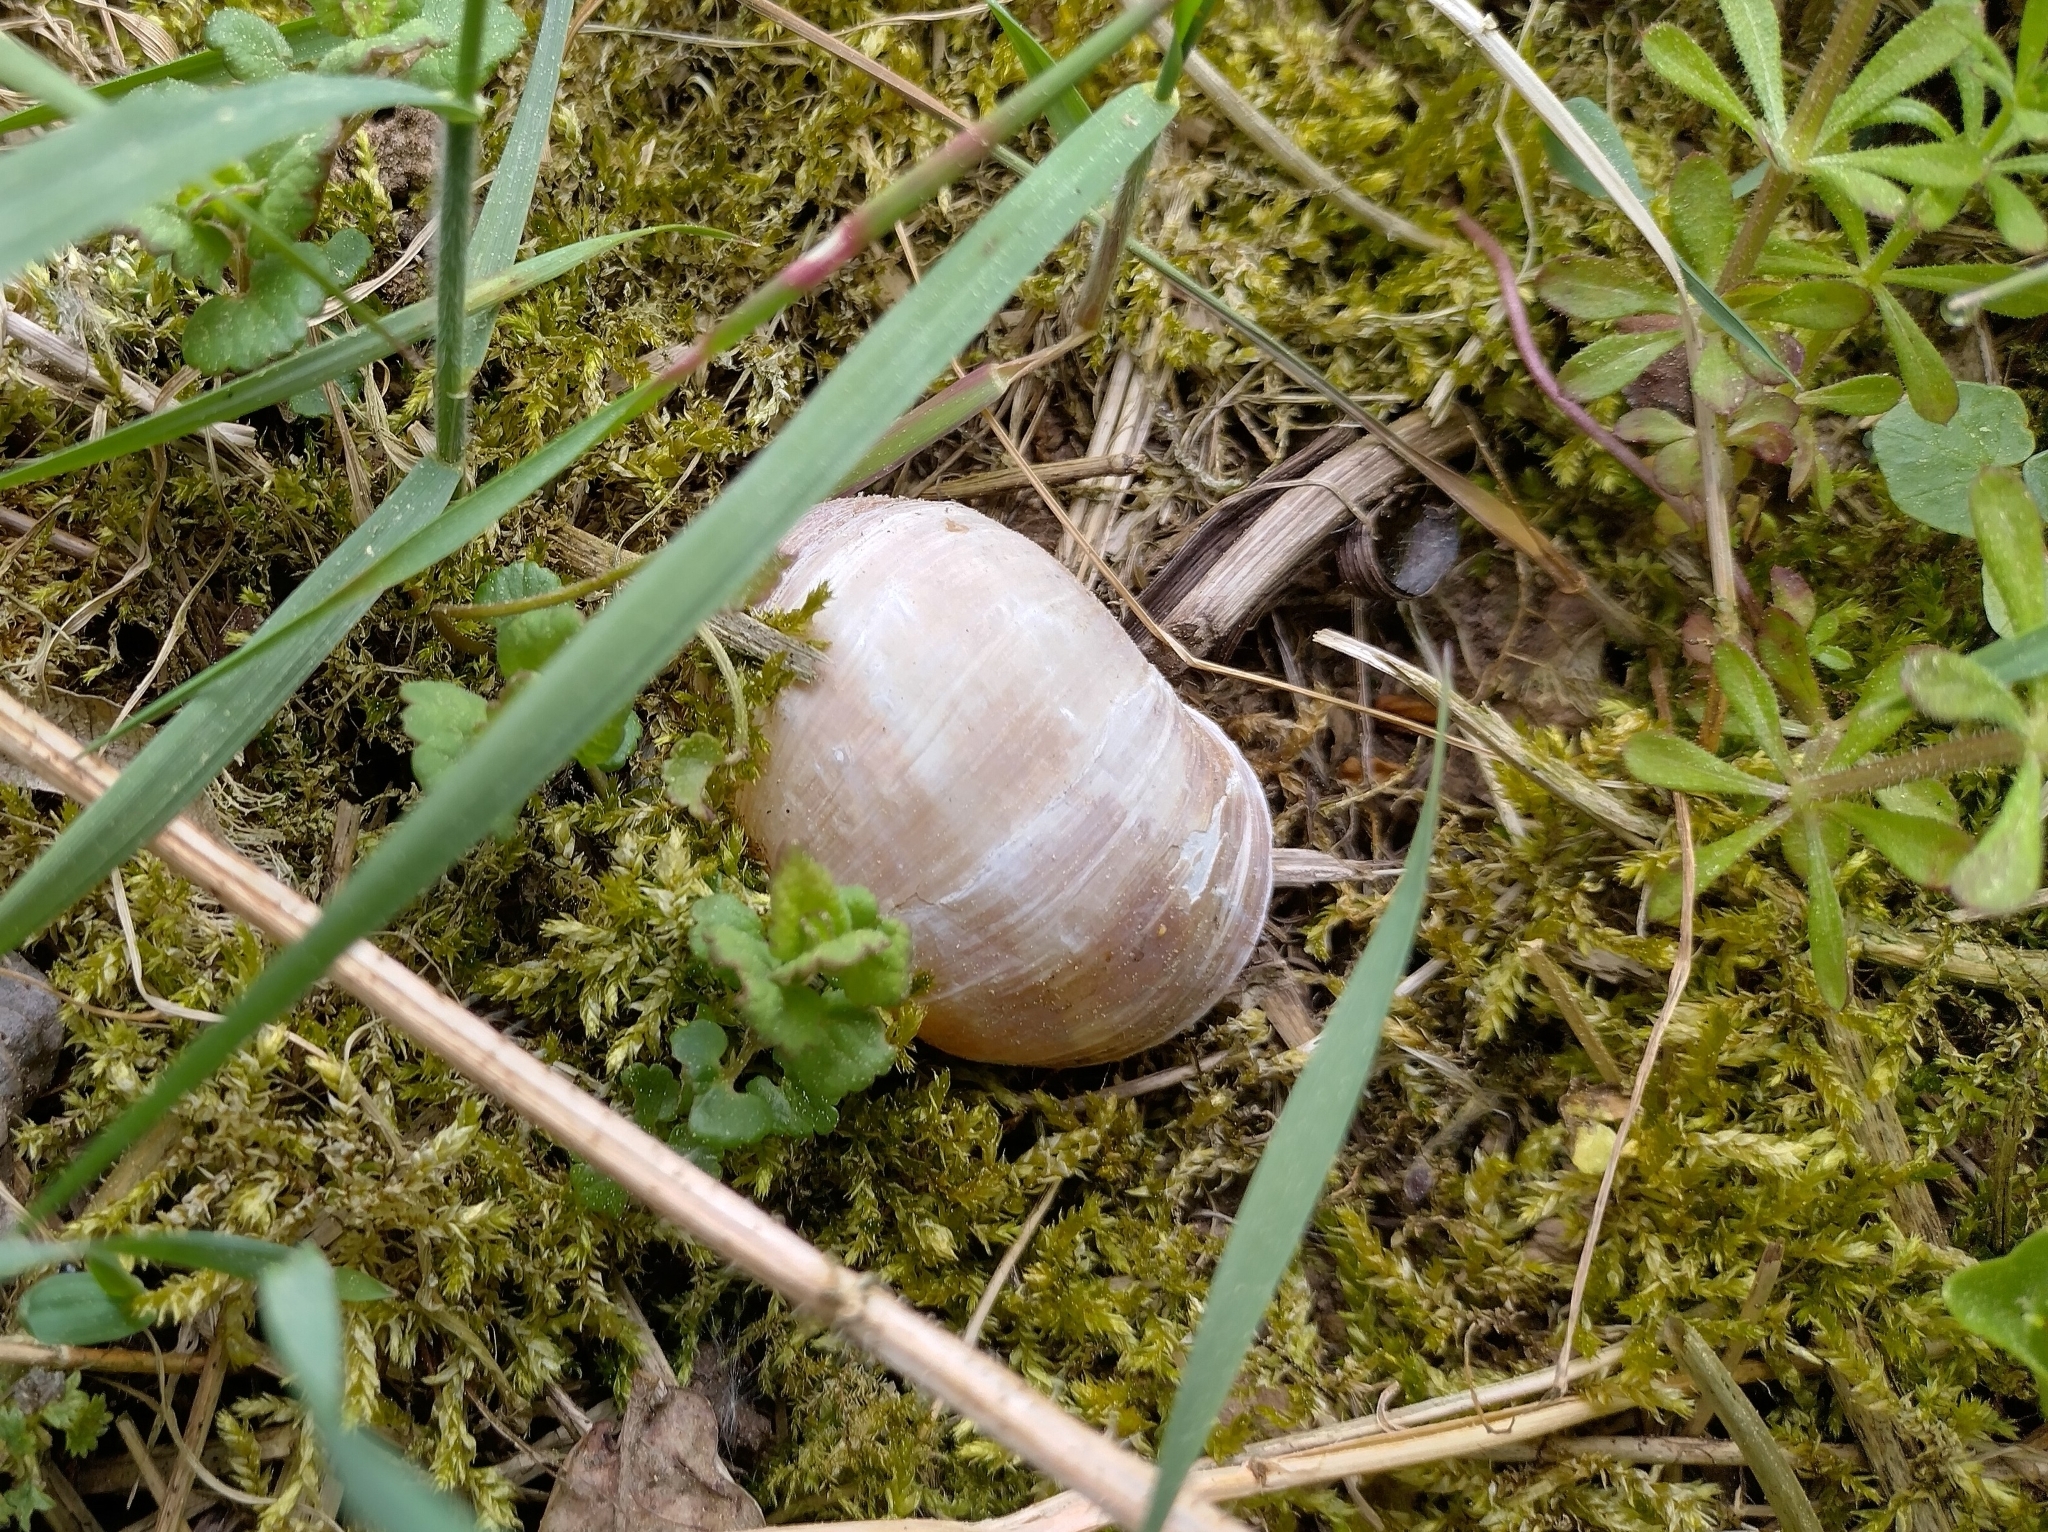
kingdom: Animalia
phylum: Mollusca
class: Gastropoda
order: Stylommatophora
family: Helicidae
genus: Helix
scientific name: Helix pomatia
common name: Roman snail
